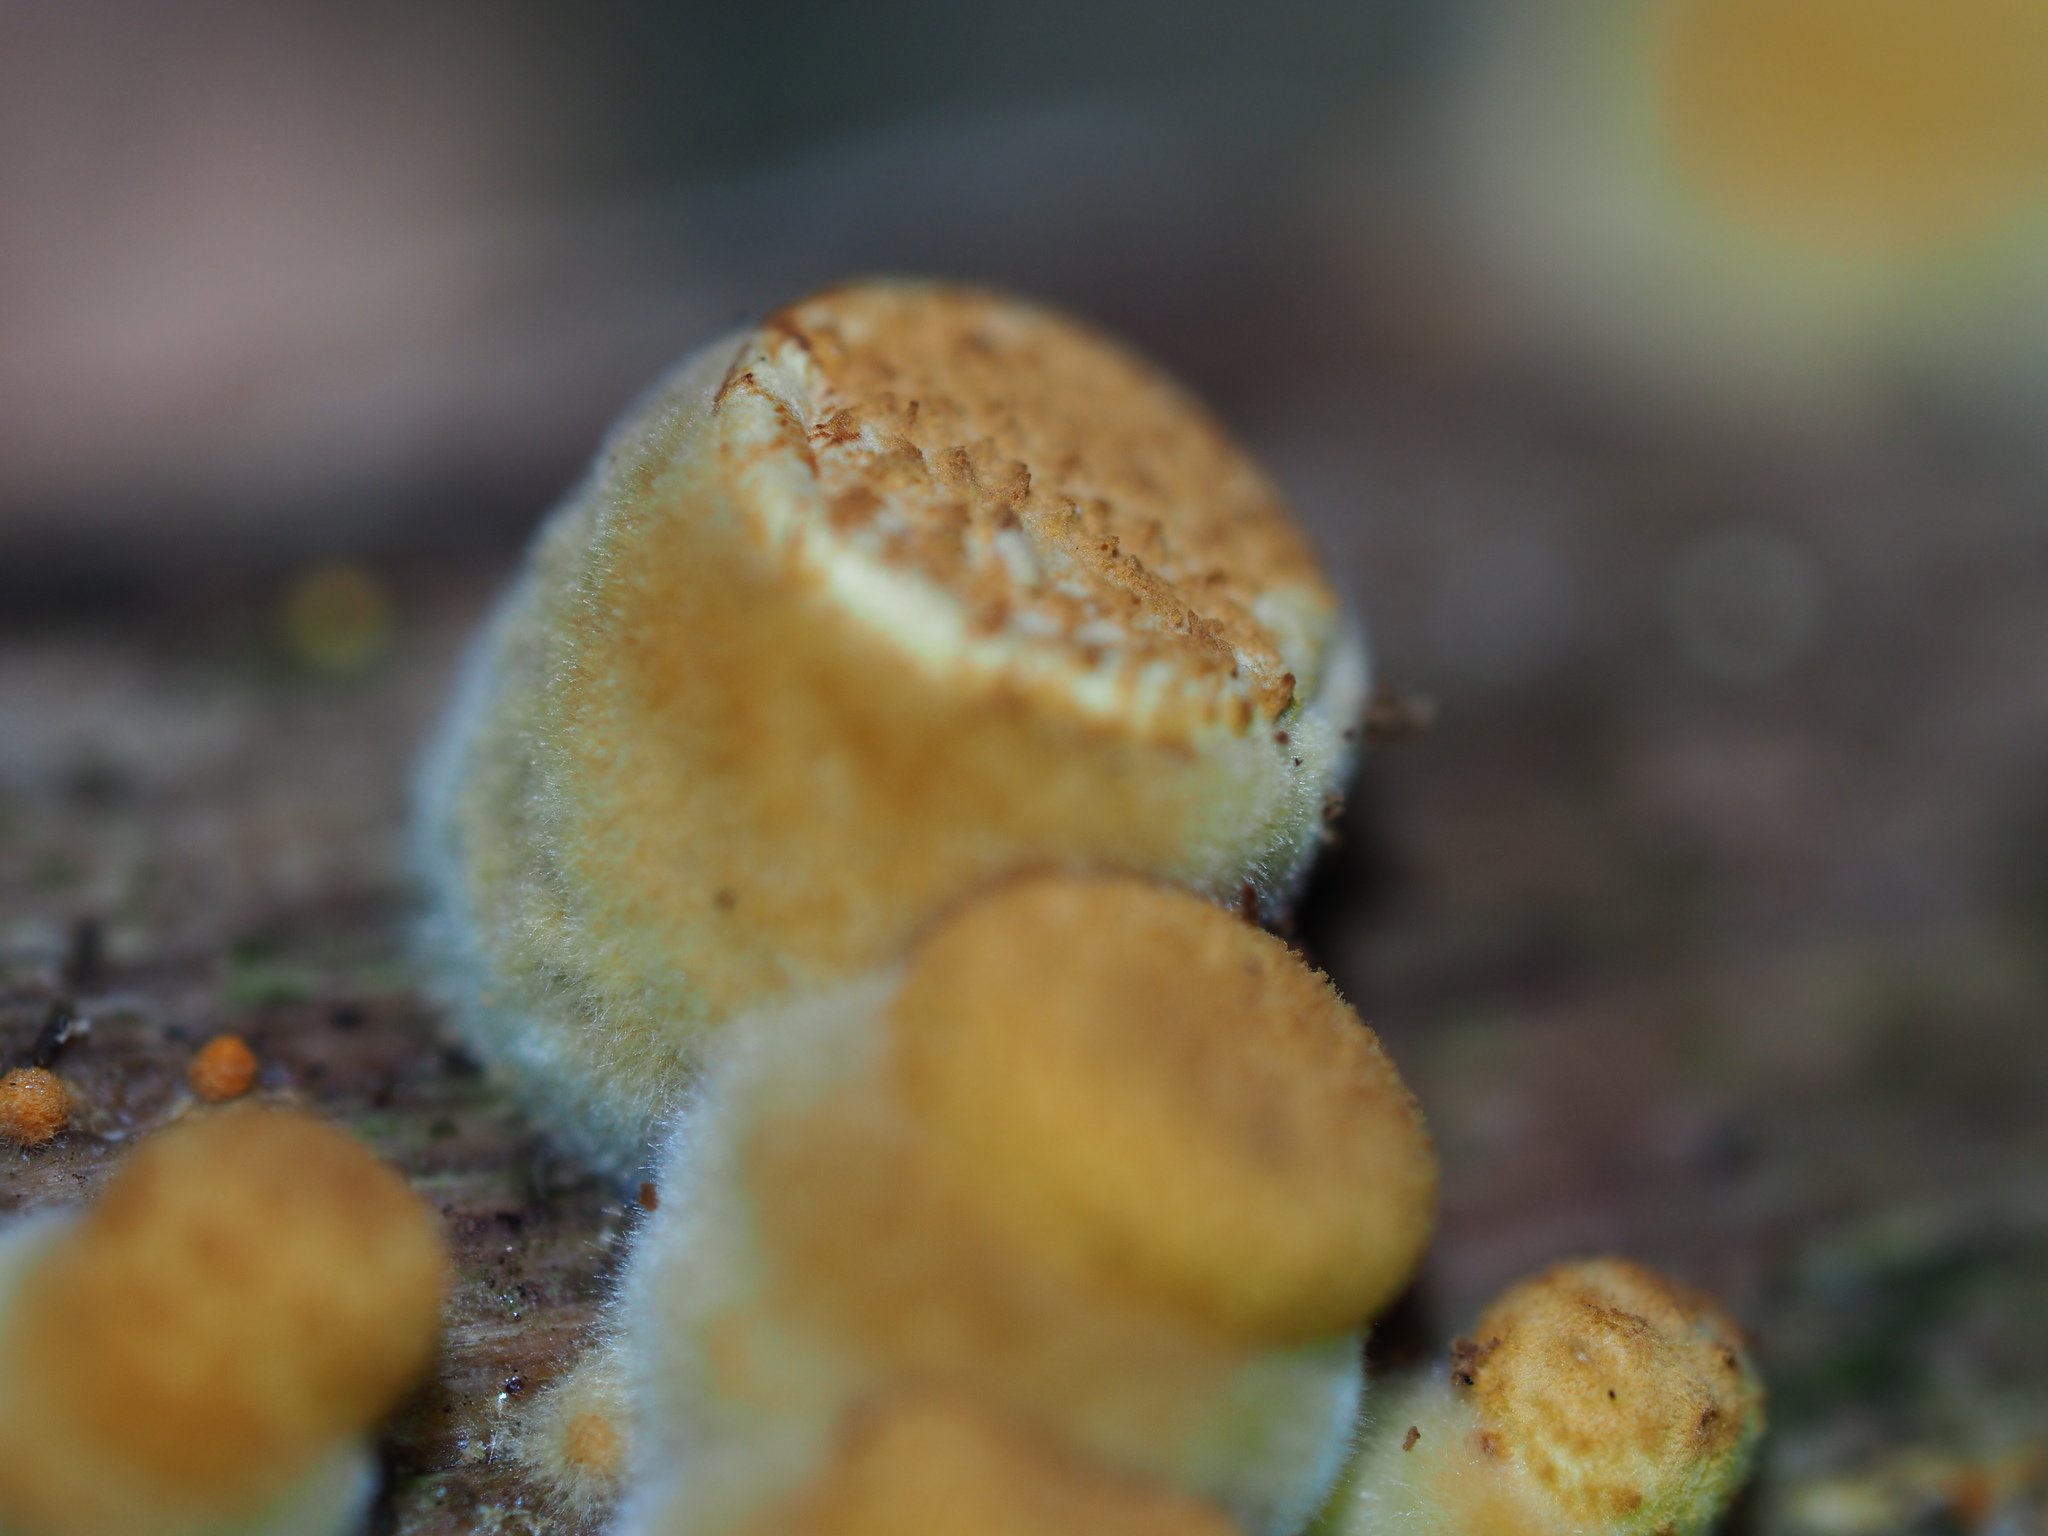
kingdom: Fungi
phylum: Basidiomycota
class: Agaricomycetes
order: Agaricales
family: Nidulariaceae
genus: Crucibulum
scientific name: Crucibulum laeve
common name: Common bird's nest
